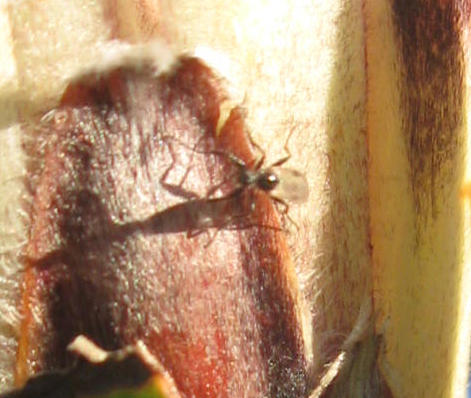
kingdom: Plantae
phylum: Tracheophyta
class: Magnoliopsida
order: Proteales
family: Proteaceae
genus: Protea
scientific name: Protea lepidocarpodendron
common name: Black-bearded protea
